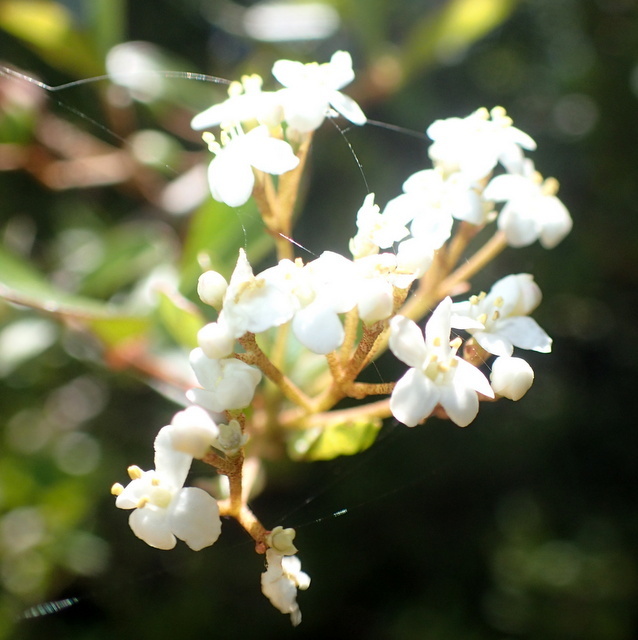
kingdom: Plantae
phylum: Tracheophyta
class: Magnoliopsida
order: Dipsacales
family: Viburnaceae
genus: Viburnum
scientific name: Viburnum obovatum
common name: Walter's viburnum
